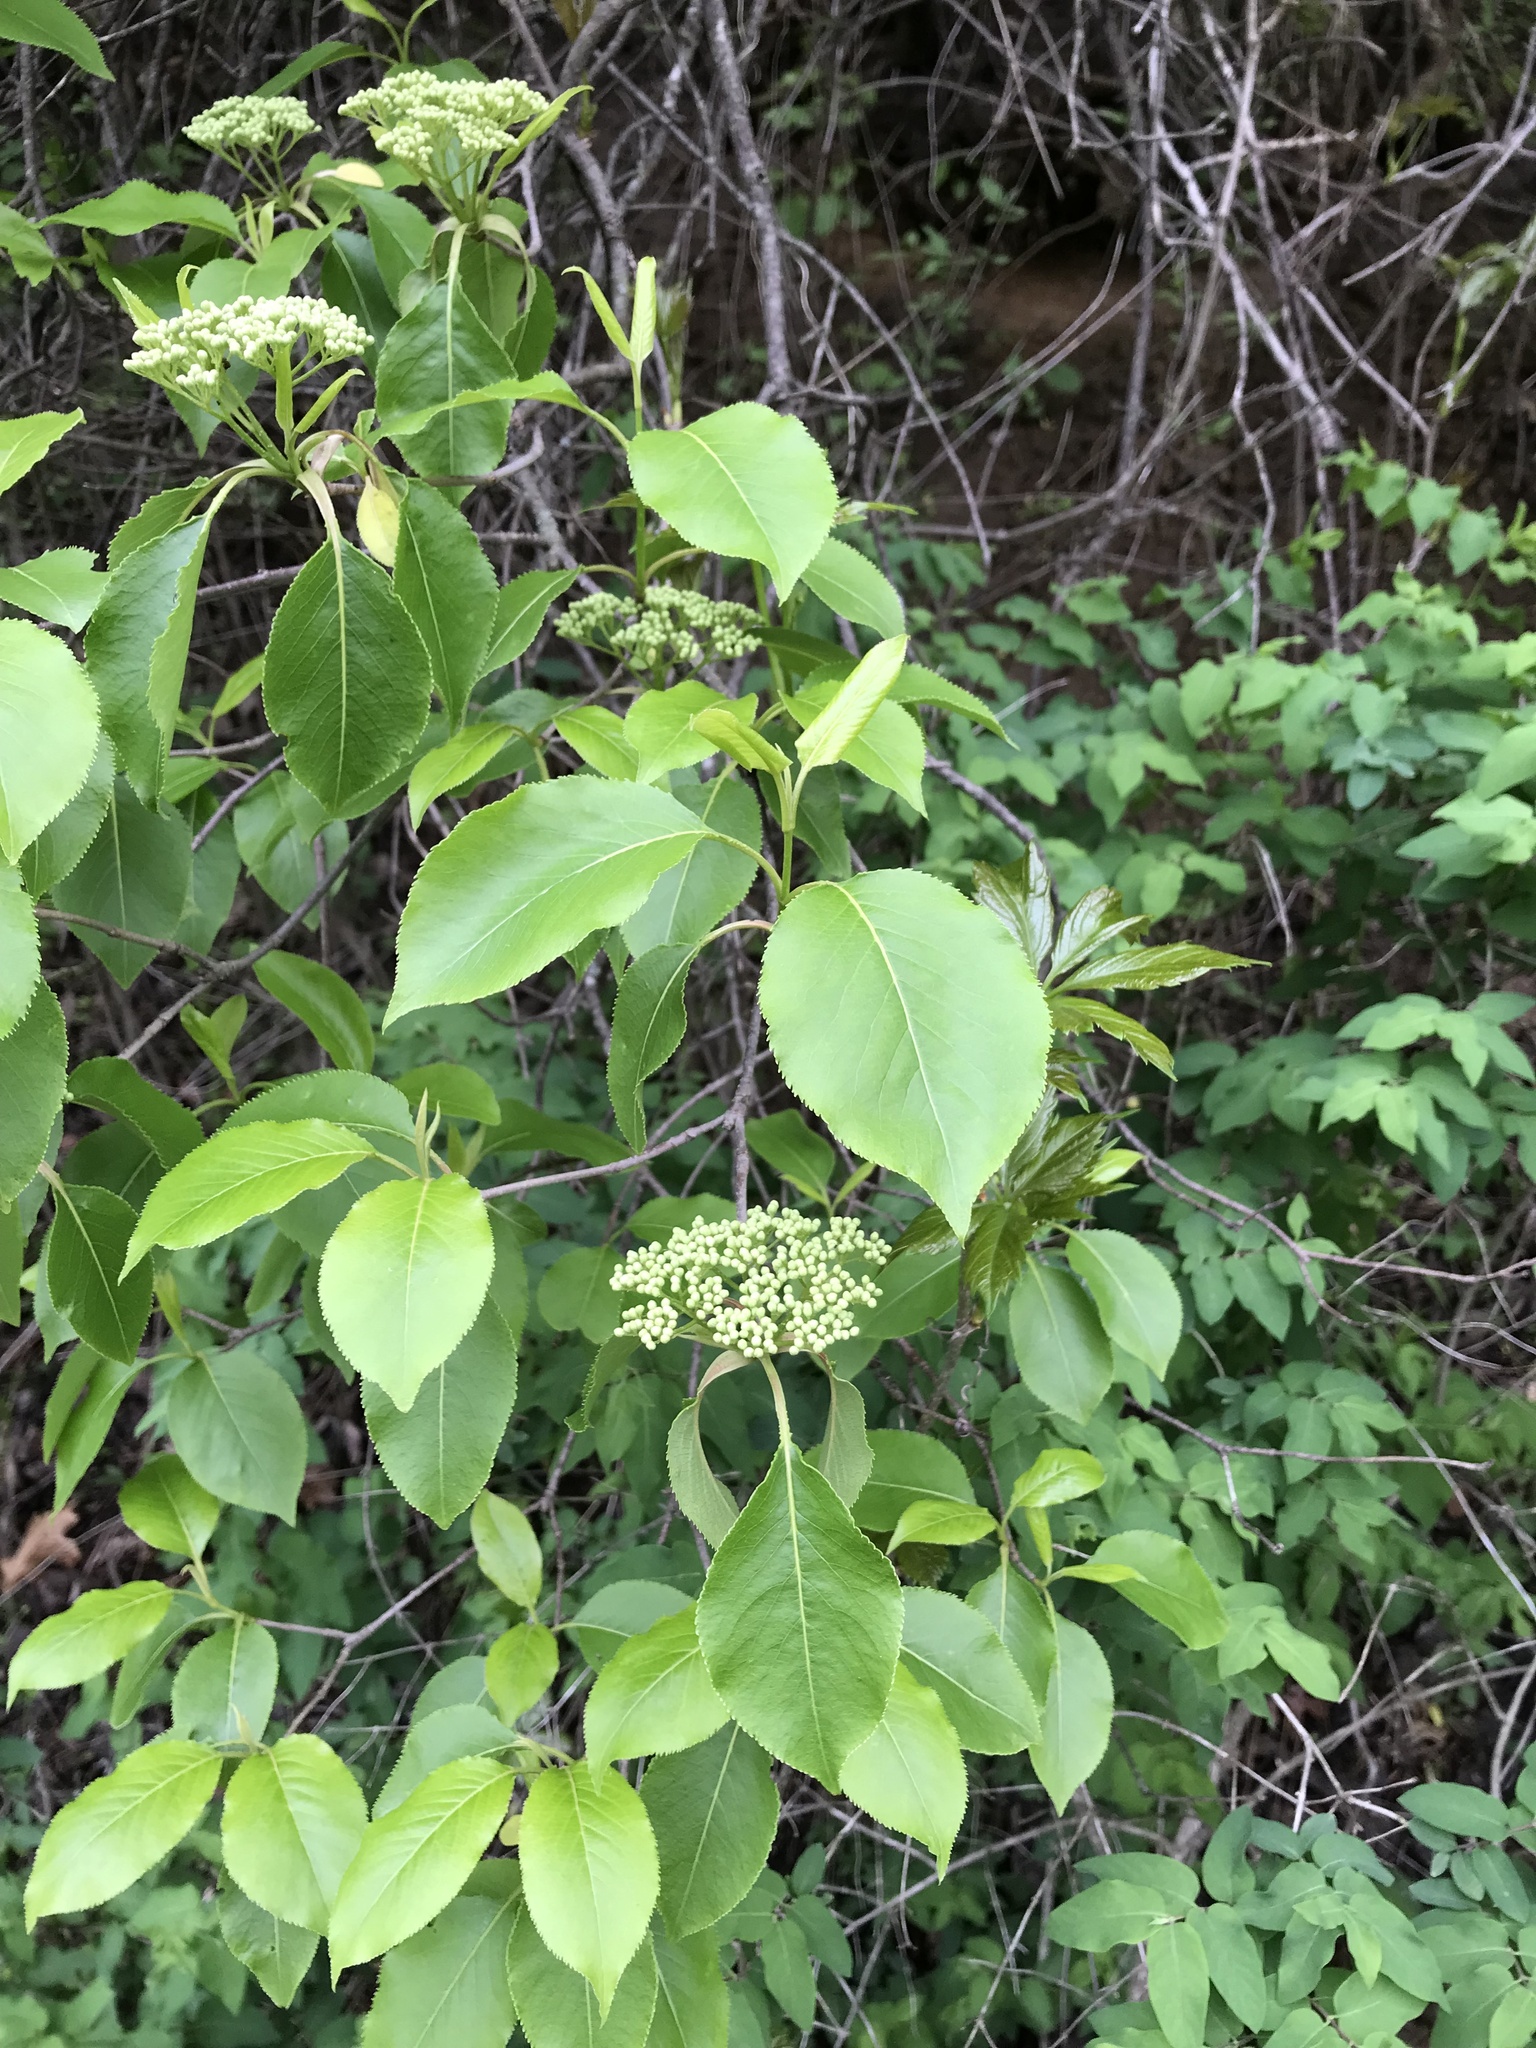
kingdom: Plantae
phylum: Tracheophyta
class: Magnoliopsida
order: Dipsacales
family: Viburnaceae
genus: Viburnum
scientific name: Viburnum lentago
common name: Black haw
